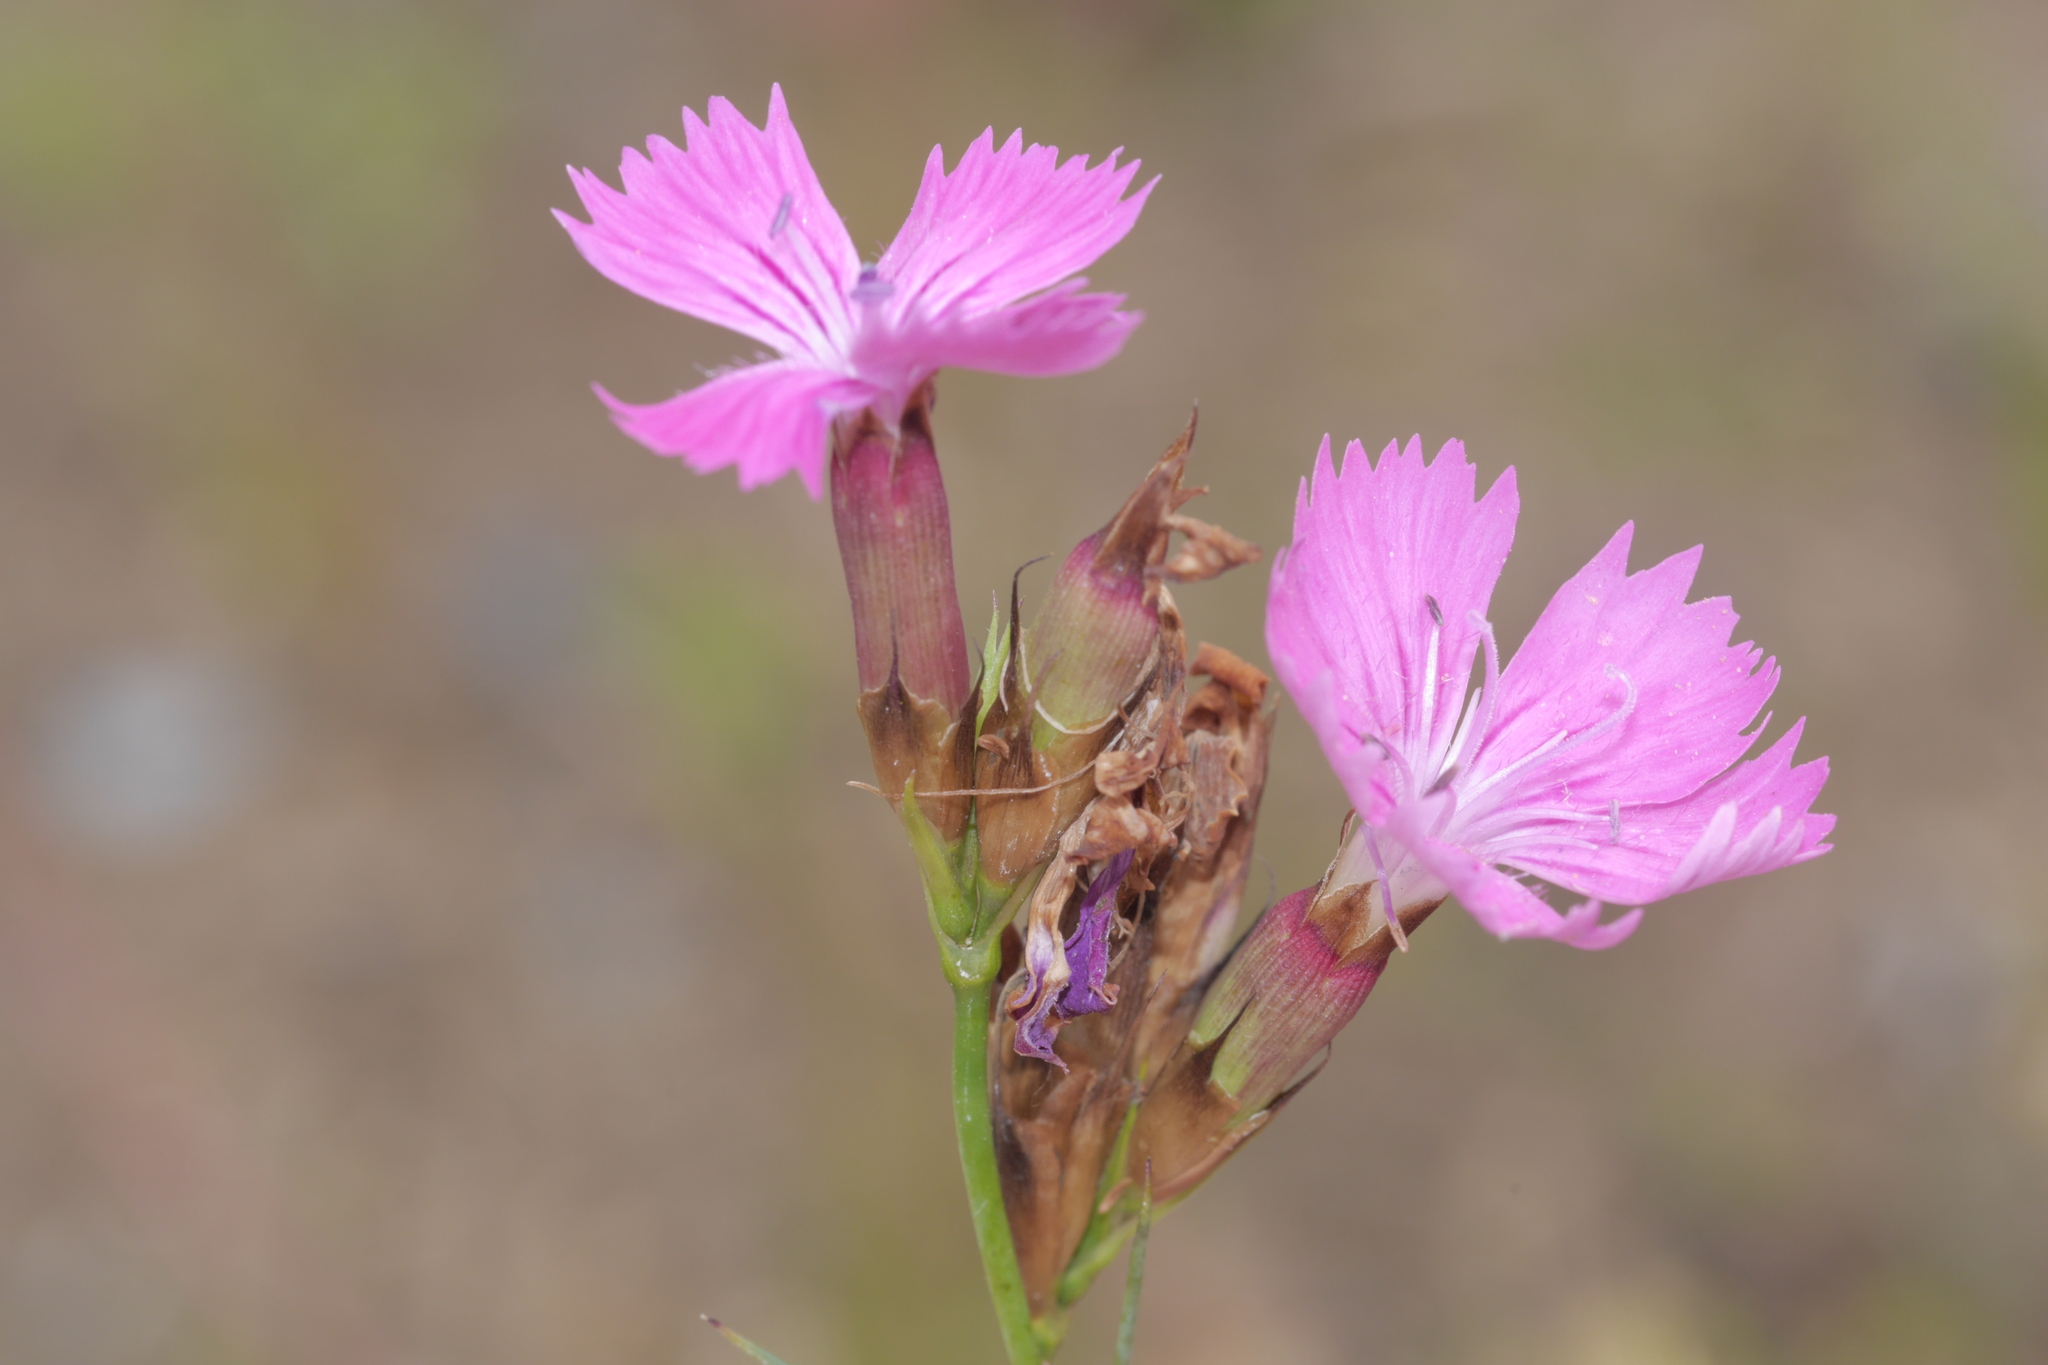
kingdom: Plantae
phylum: Tracheophyta
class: Magnoliopsida
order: Caryophyllales
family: Caryophyllaceae
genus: Dianthus
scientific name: Dianthus carthusianorum
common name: Carthusian pink
